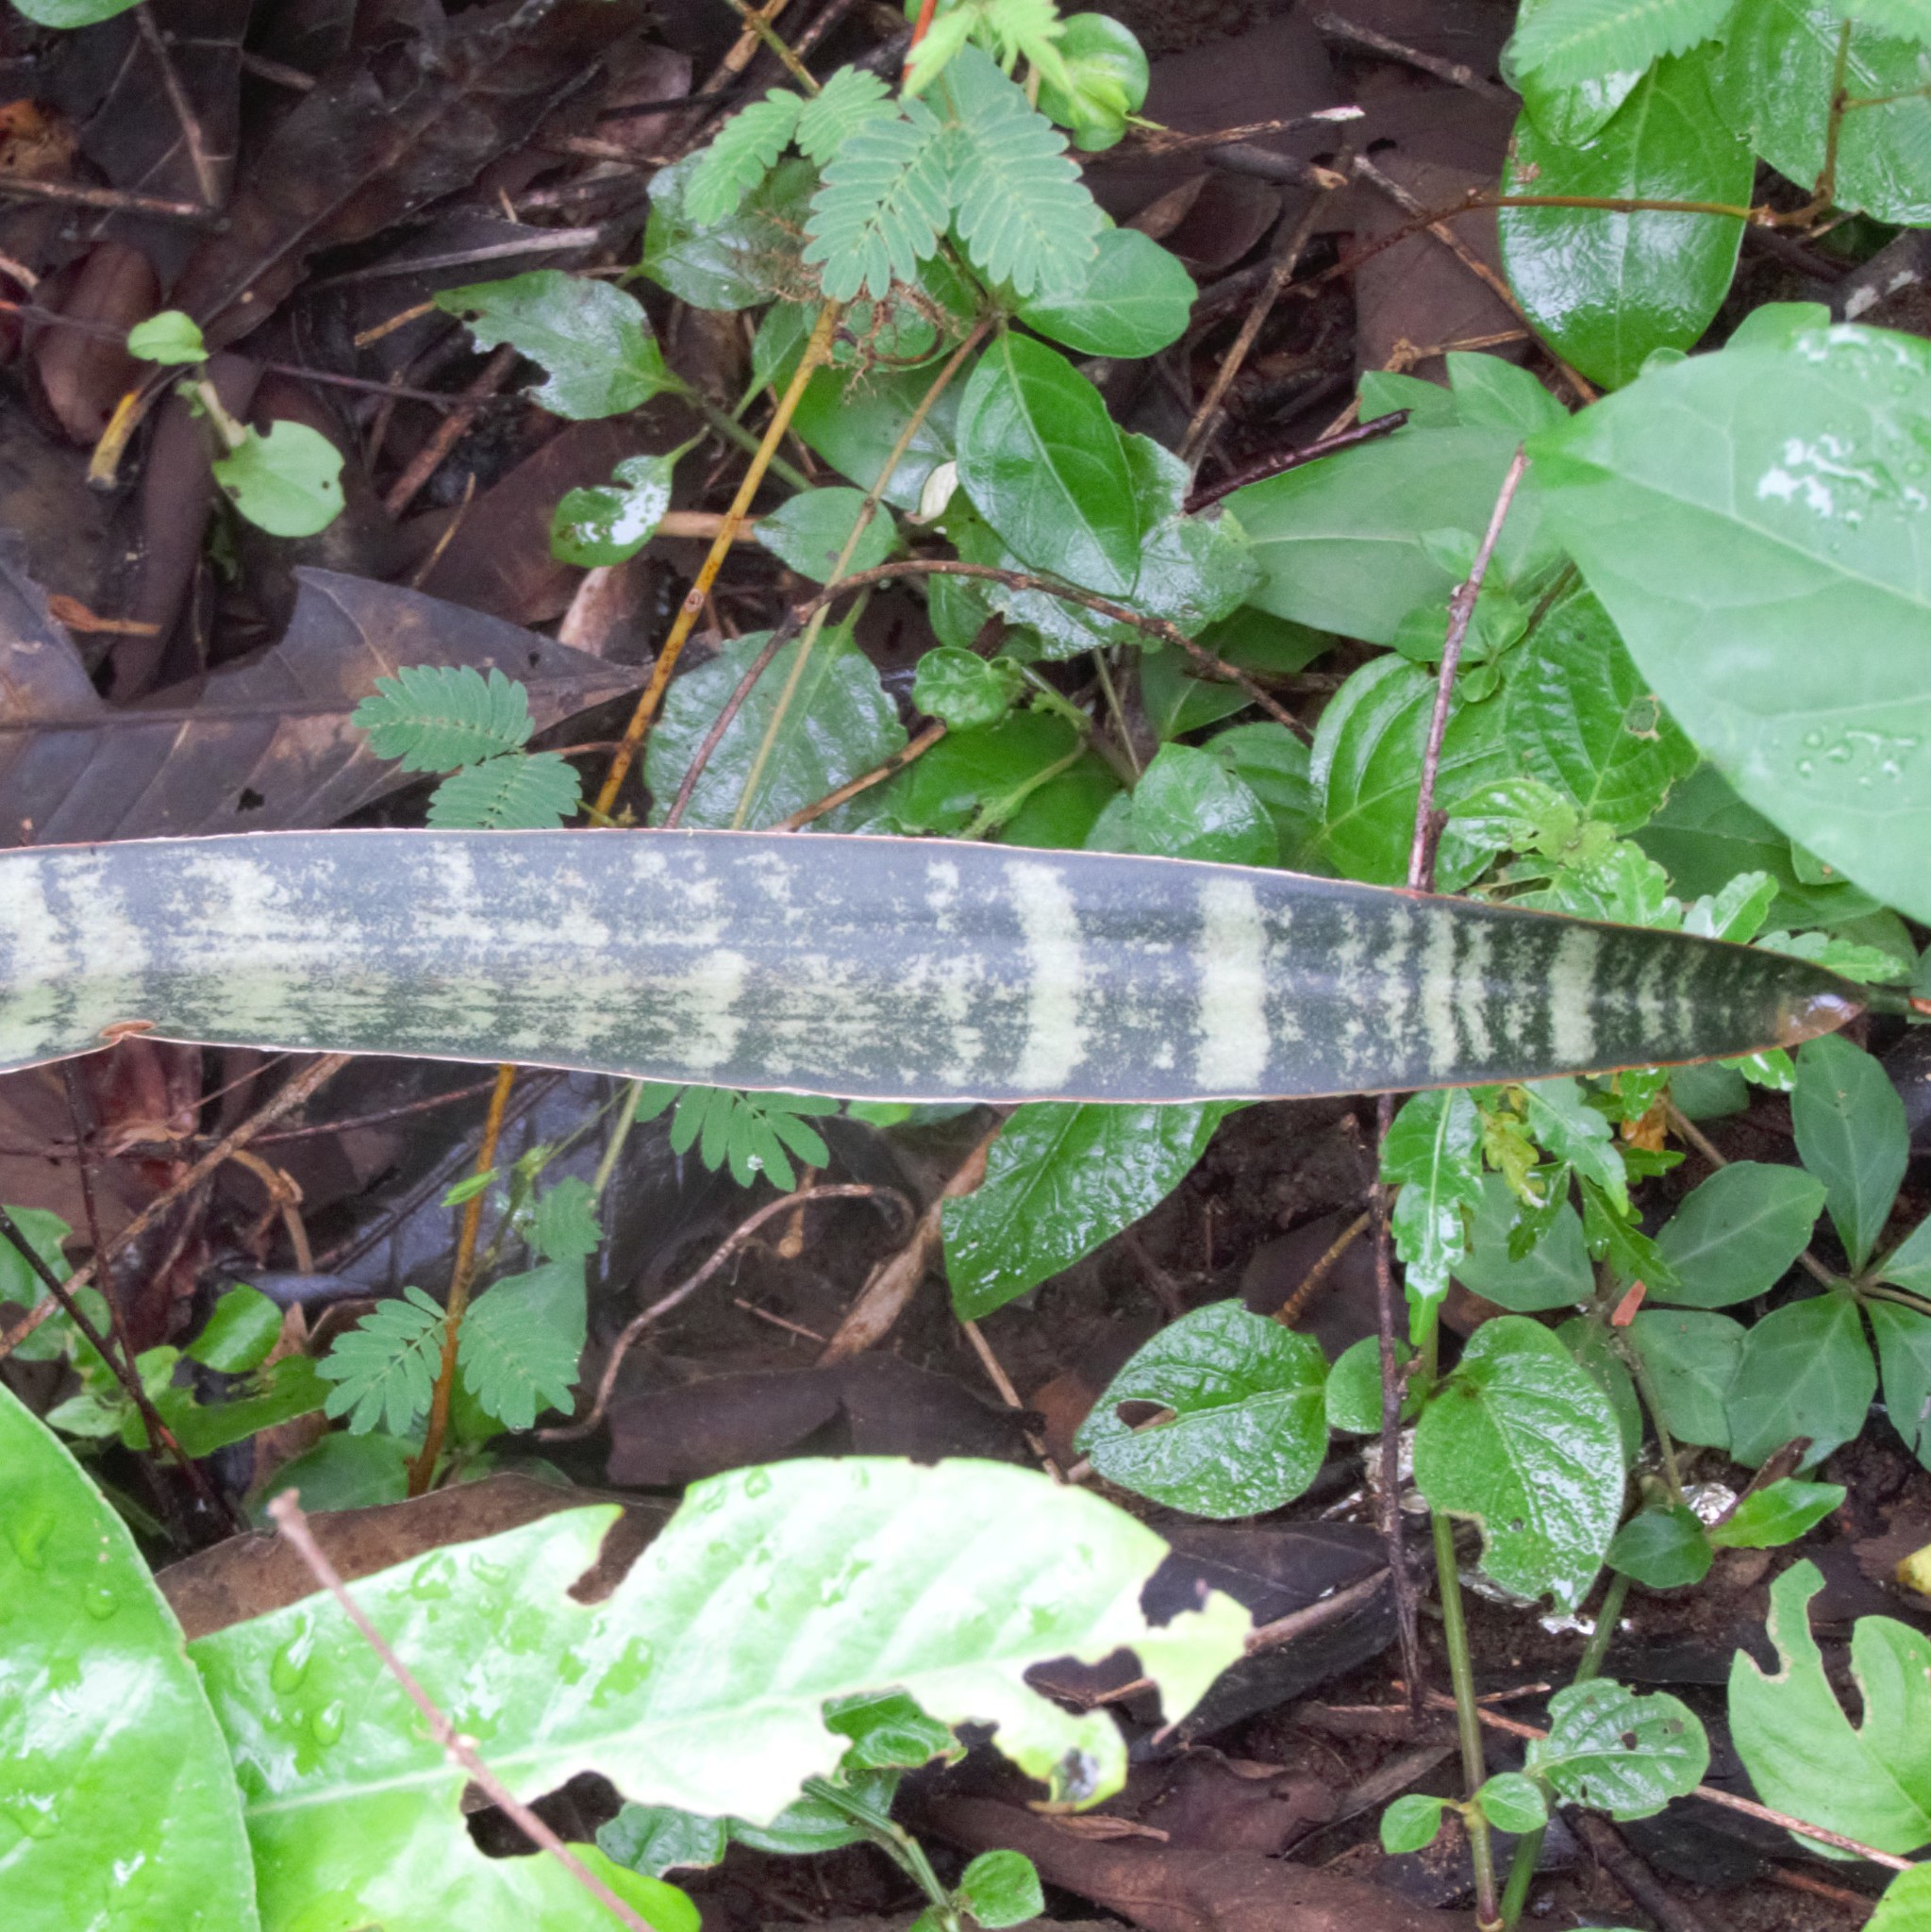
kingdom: Plantae
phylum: Tracheophyta
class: Liliopsida
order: Asparagales
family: Asparagaceae
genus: Dracaena
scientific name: Dracaena trifasciata
